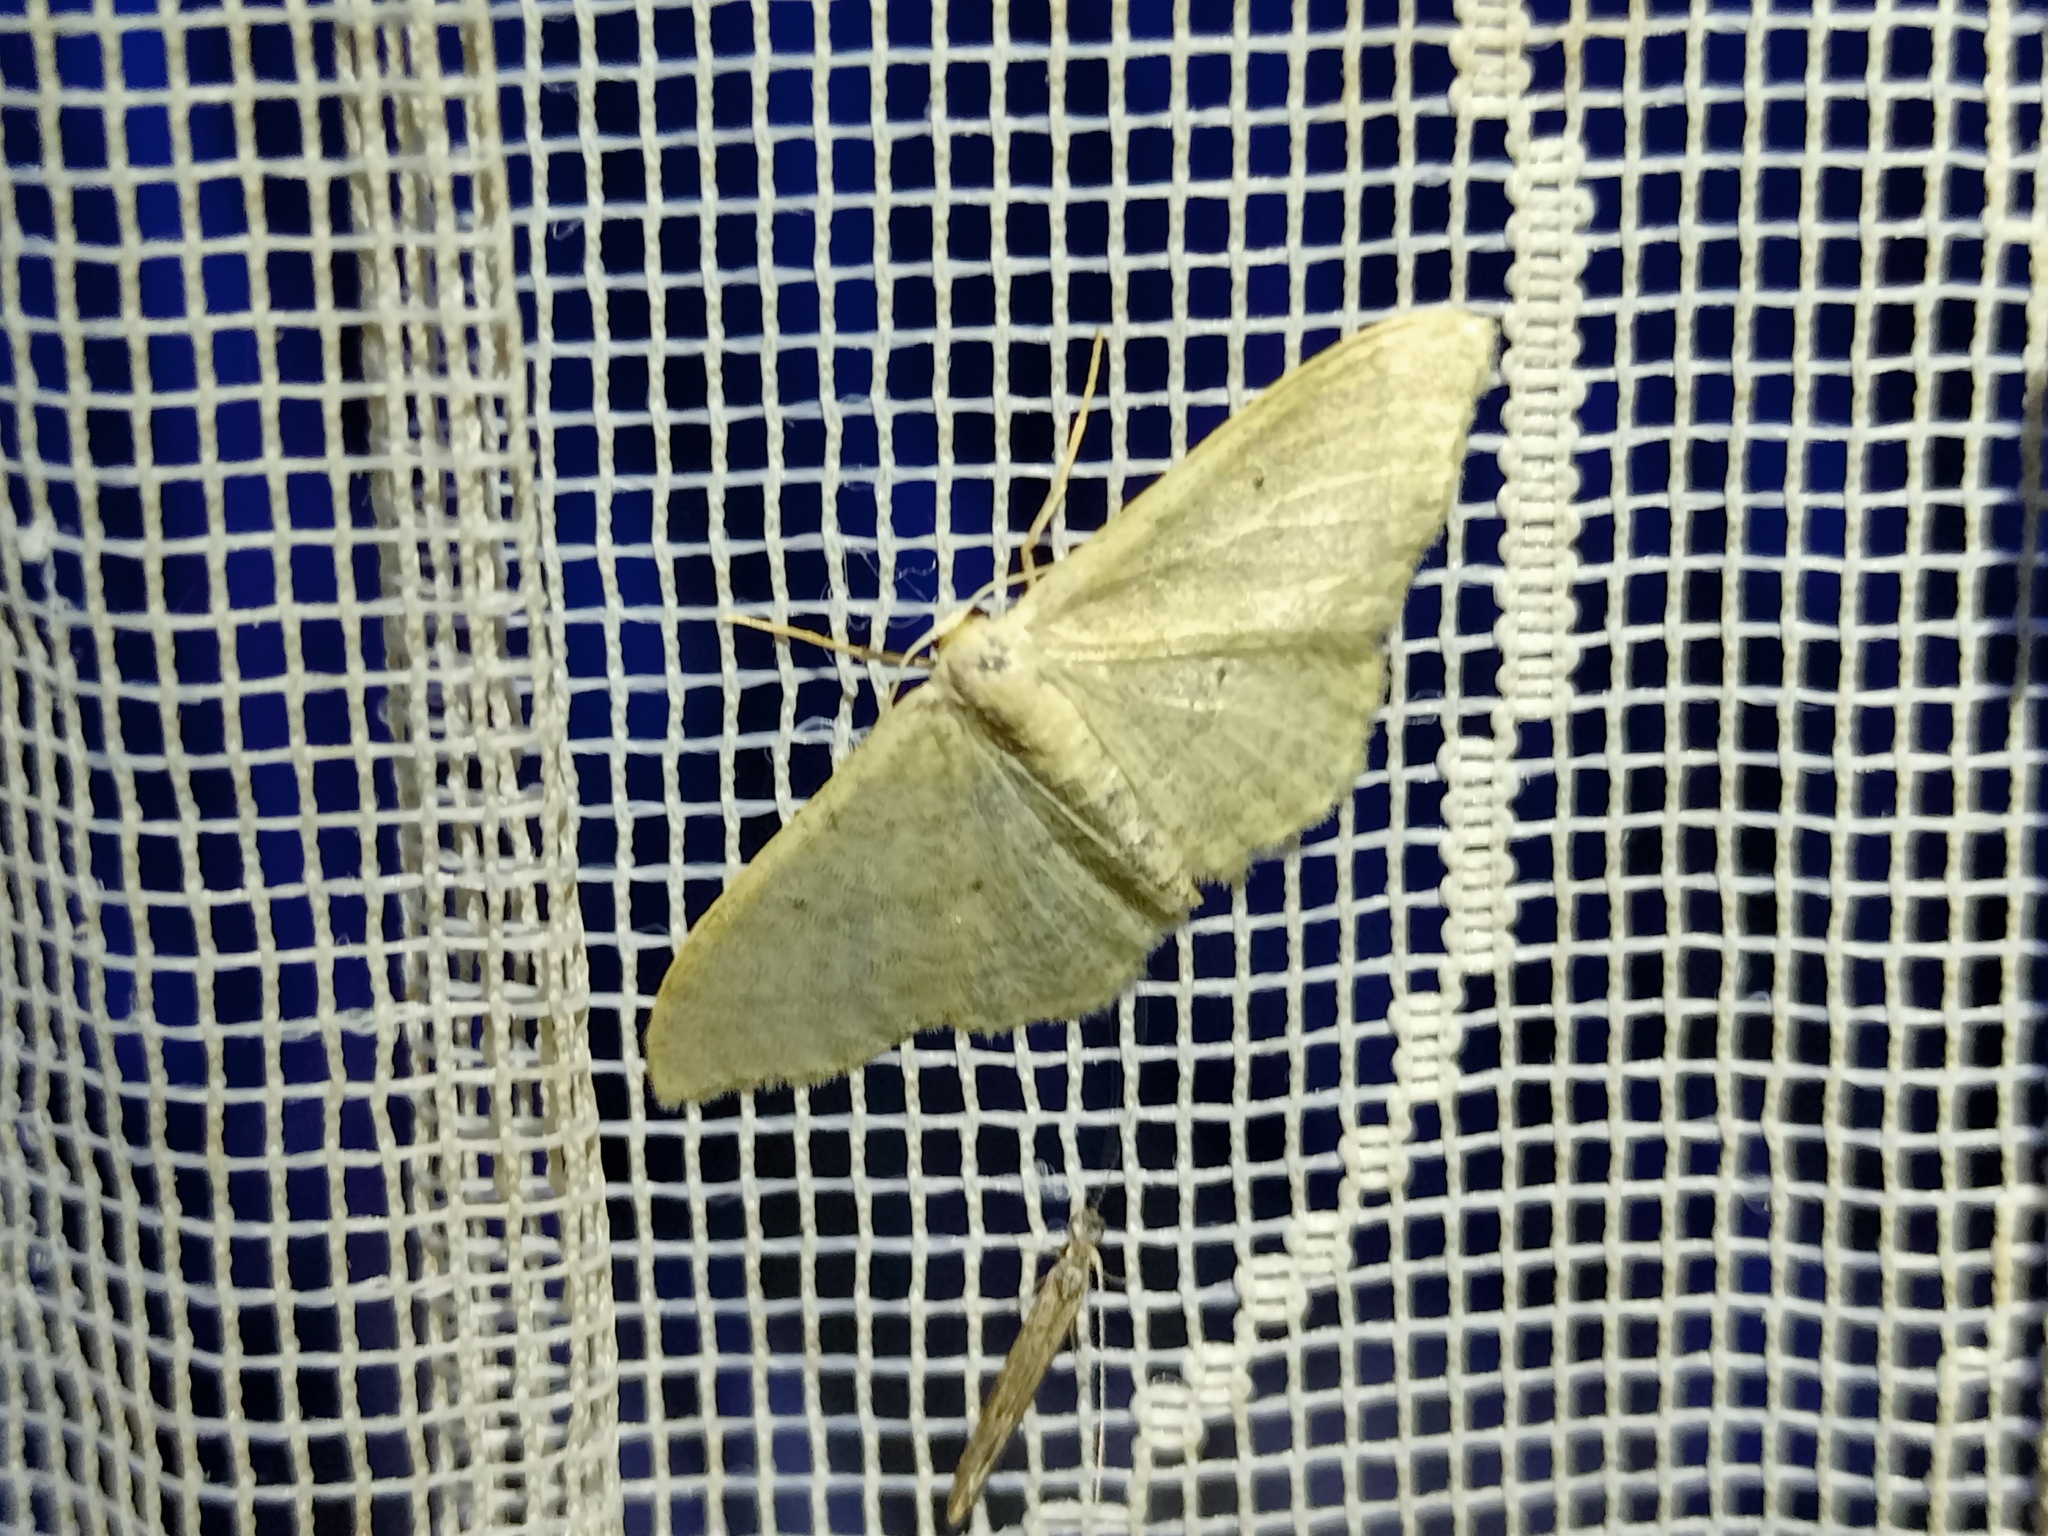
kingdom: Animalia
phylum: Arthropoda
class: Insecta
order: Lepidoptera
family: Geometridae
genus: Idaea
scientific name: Idaea straminata
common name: Plain wave
